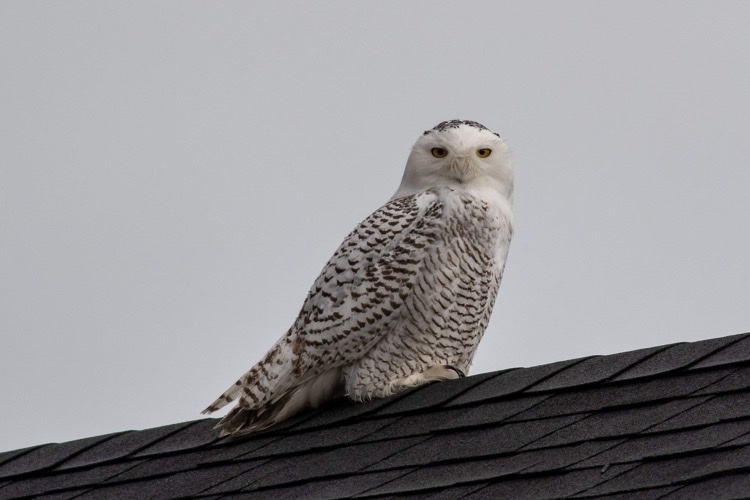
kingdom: Animalia
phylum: Chordata
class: Aves
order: Strigiformes
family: Strigidae
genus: Bubo
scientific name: Bubo scandiacus
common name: Snowy owl
